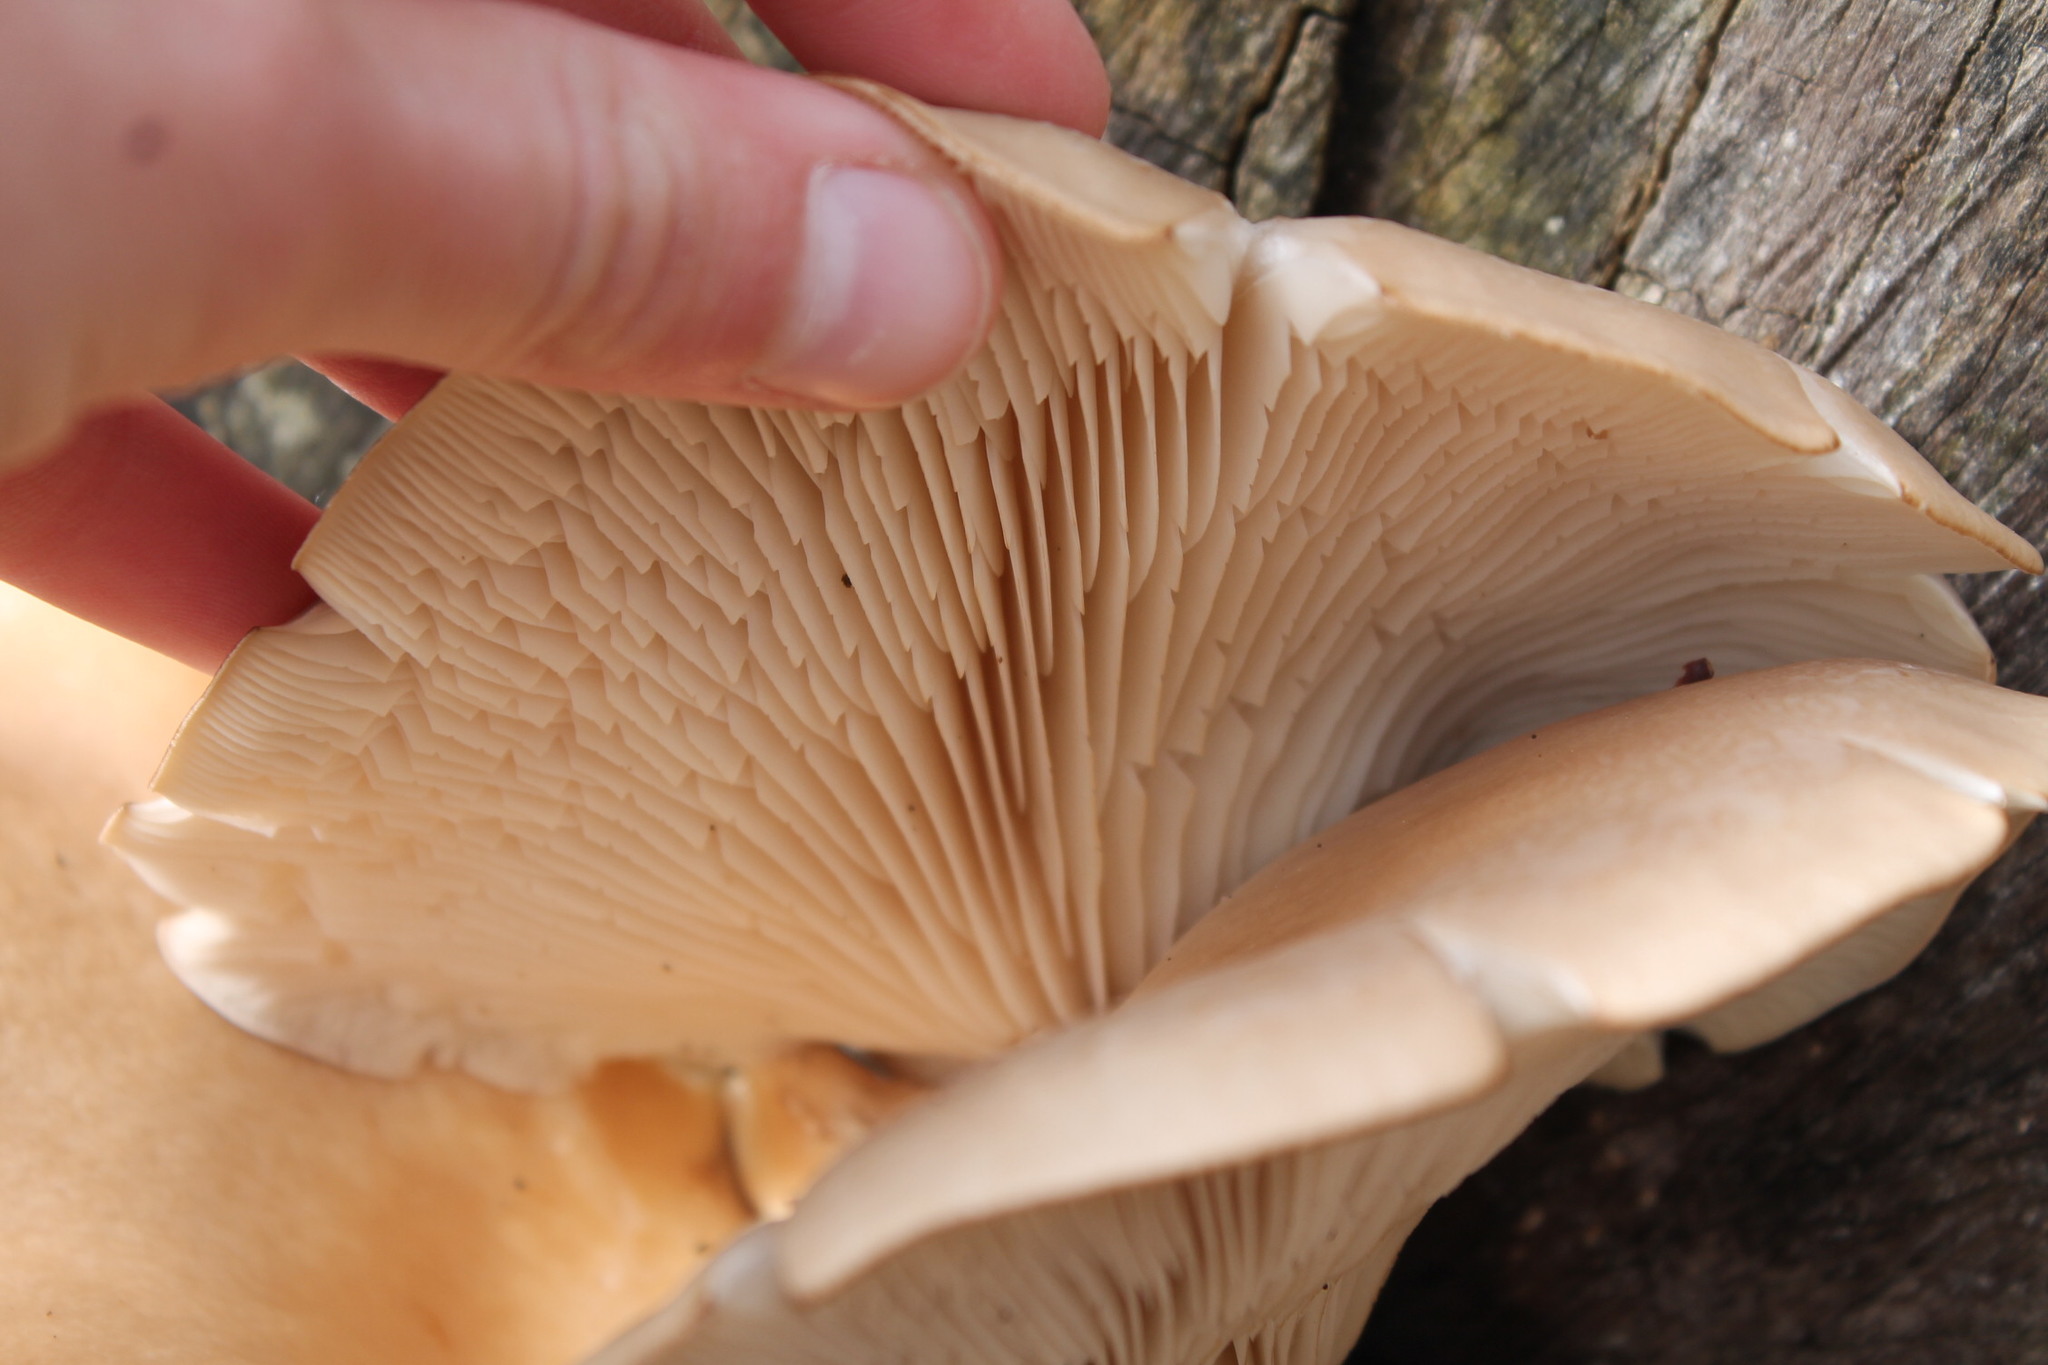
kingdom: Fungi
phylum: Basidiomycota
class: Agaricomycetes
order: Agaricales
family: Pleurotaceae
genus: Pleurotus
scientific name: Pleurotus ostreatus
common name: Oyster mushroom
